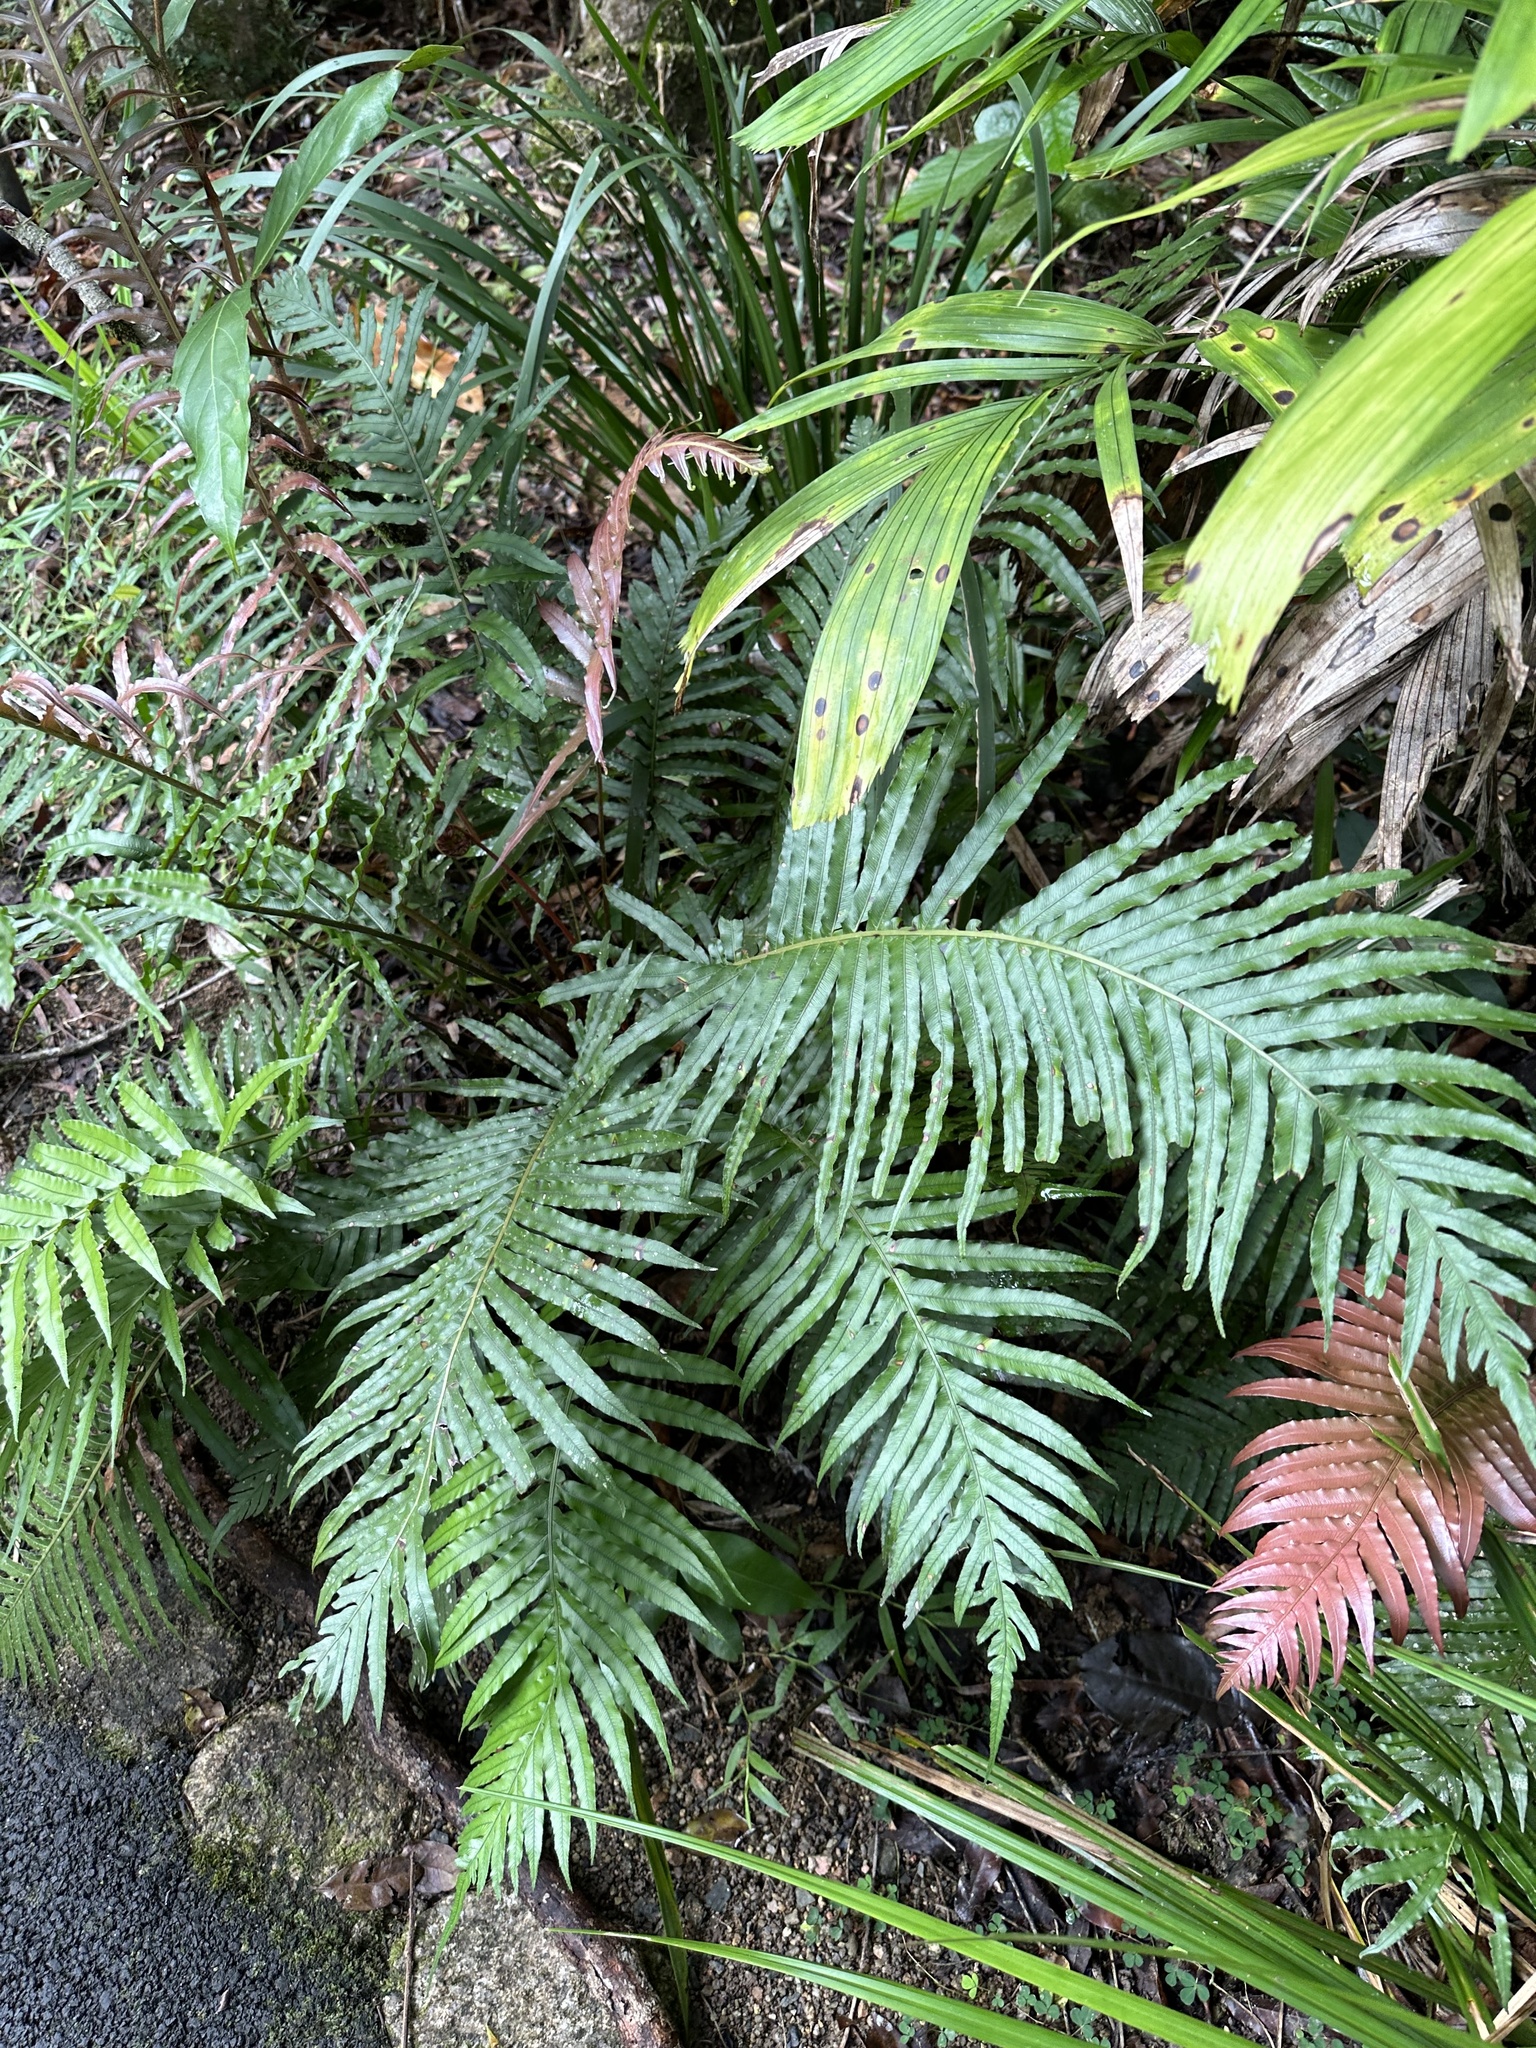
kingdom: Plantae
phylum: Tracheophyta
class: Polypodiopsida
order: Polypodiales
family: Blechnaceae
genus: Oceaniopteris
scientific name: Oceaniopteris cartilaginea
